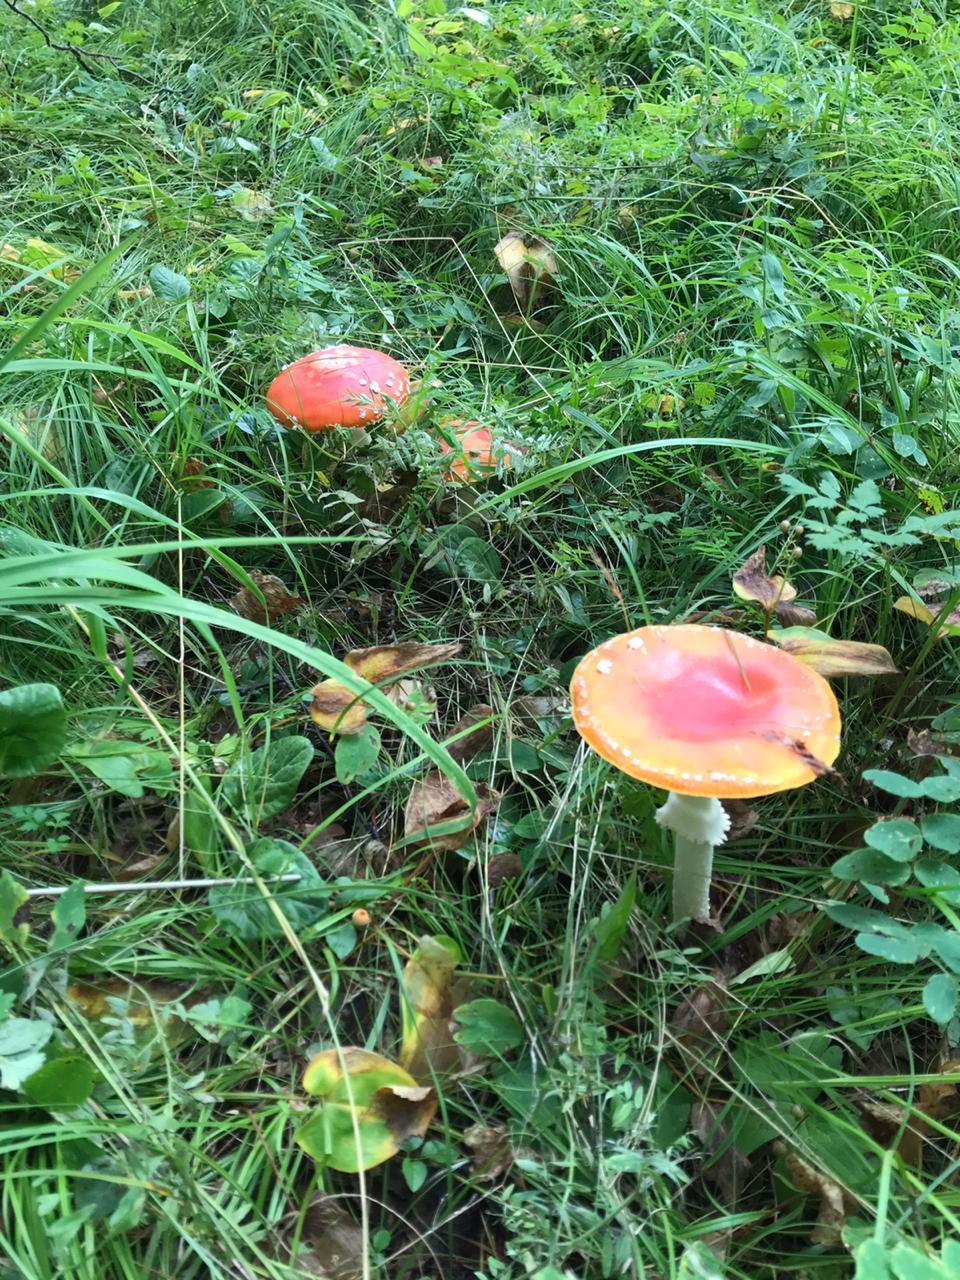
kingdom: Fungi
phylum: Basidiomycota
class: Agaricomycetes
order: Agaricales
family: Amanitaceae
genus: Amanita
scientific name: Amanita muscaria
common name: Fly agaric
